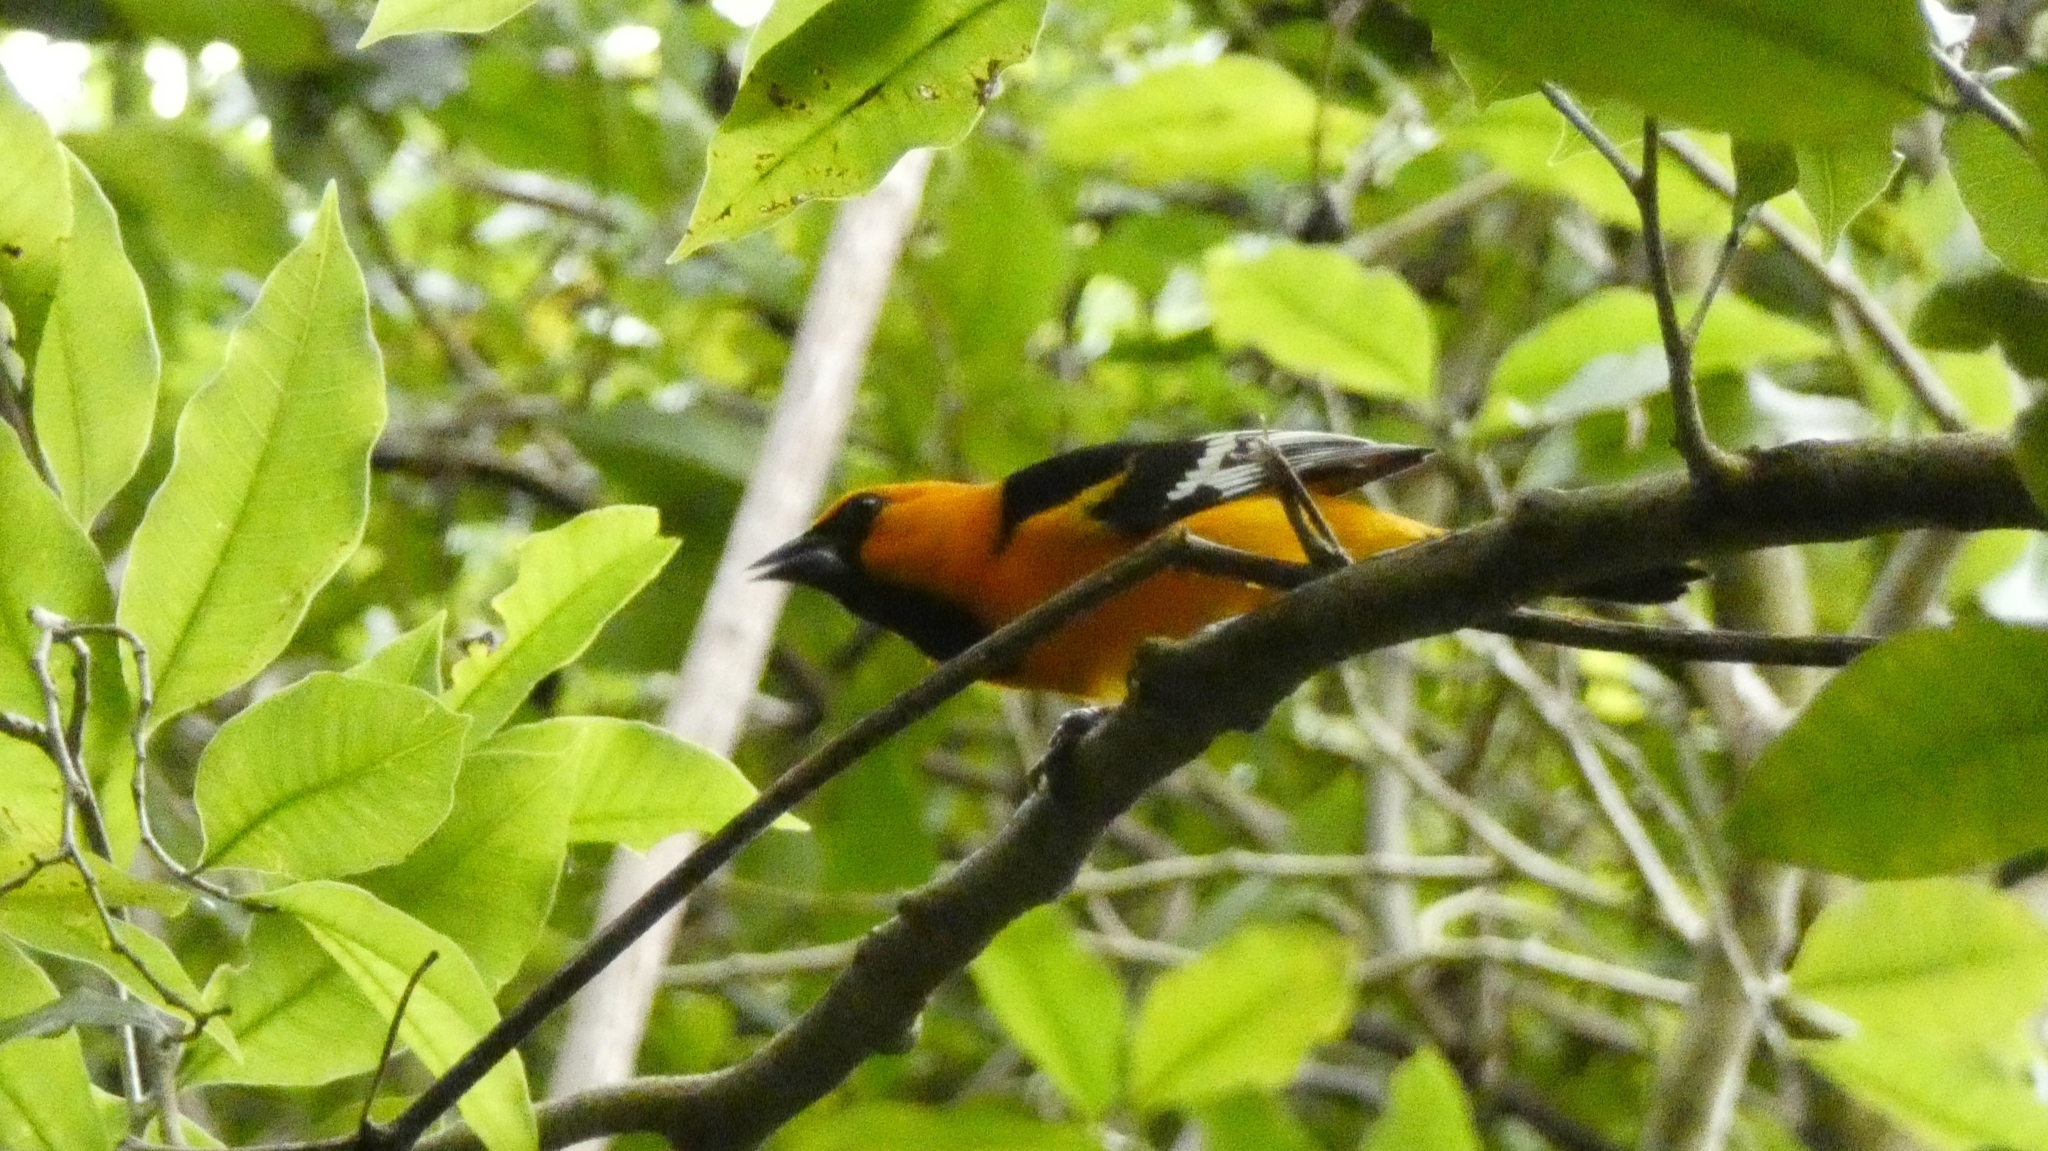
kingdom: Animalia
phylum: Chordata
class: Aves
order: Passeriformes
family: Icteridae
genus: Icterus
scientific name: Icterus gularis
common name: Altamira oriole
